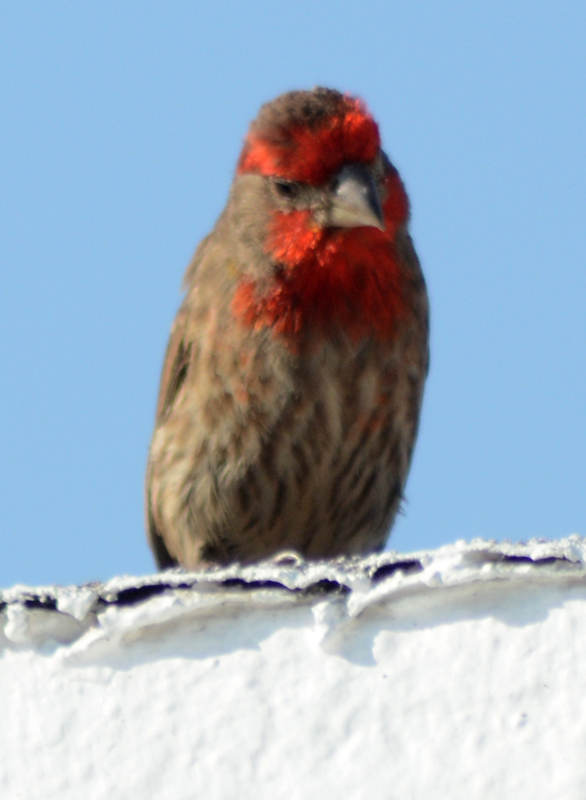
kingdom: Animalia
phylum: Chordata
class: Aves
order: Passeriformes
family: Fringillidae
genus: Haemorhous
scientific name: Haemorhous mexicanus
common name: House finch
